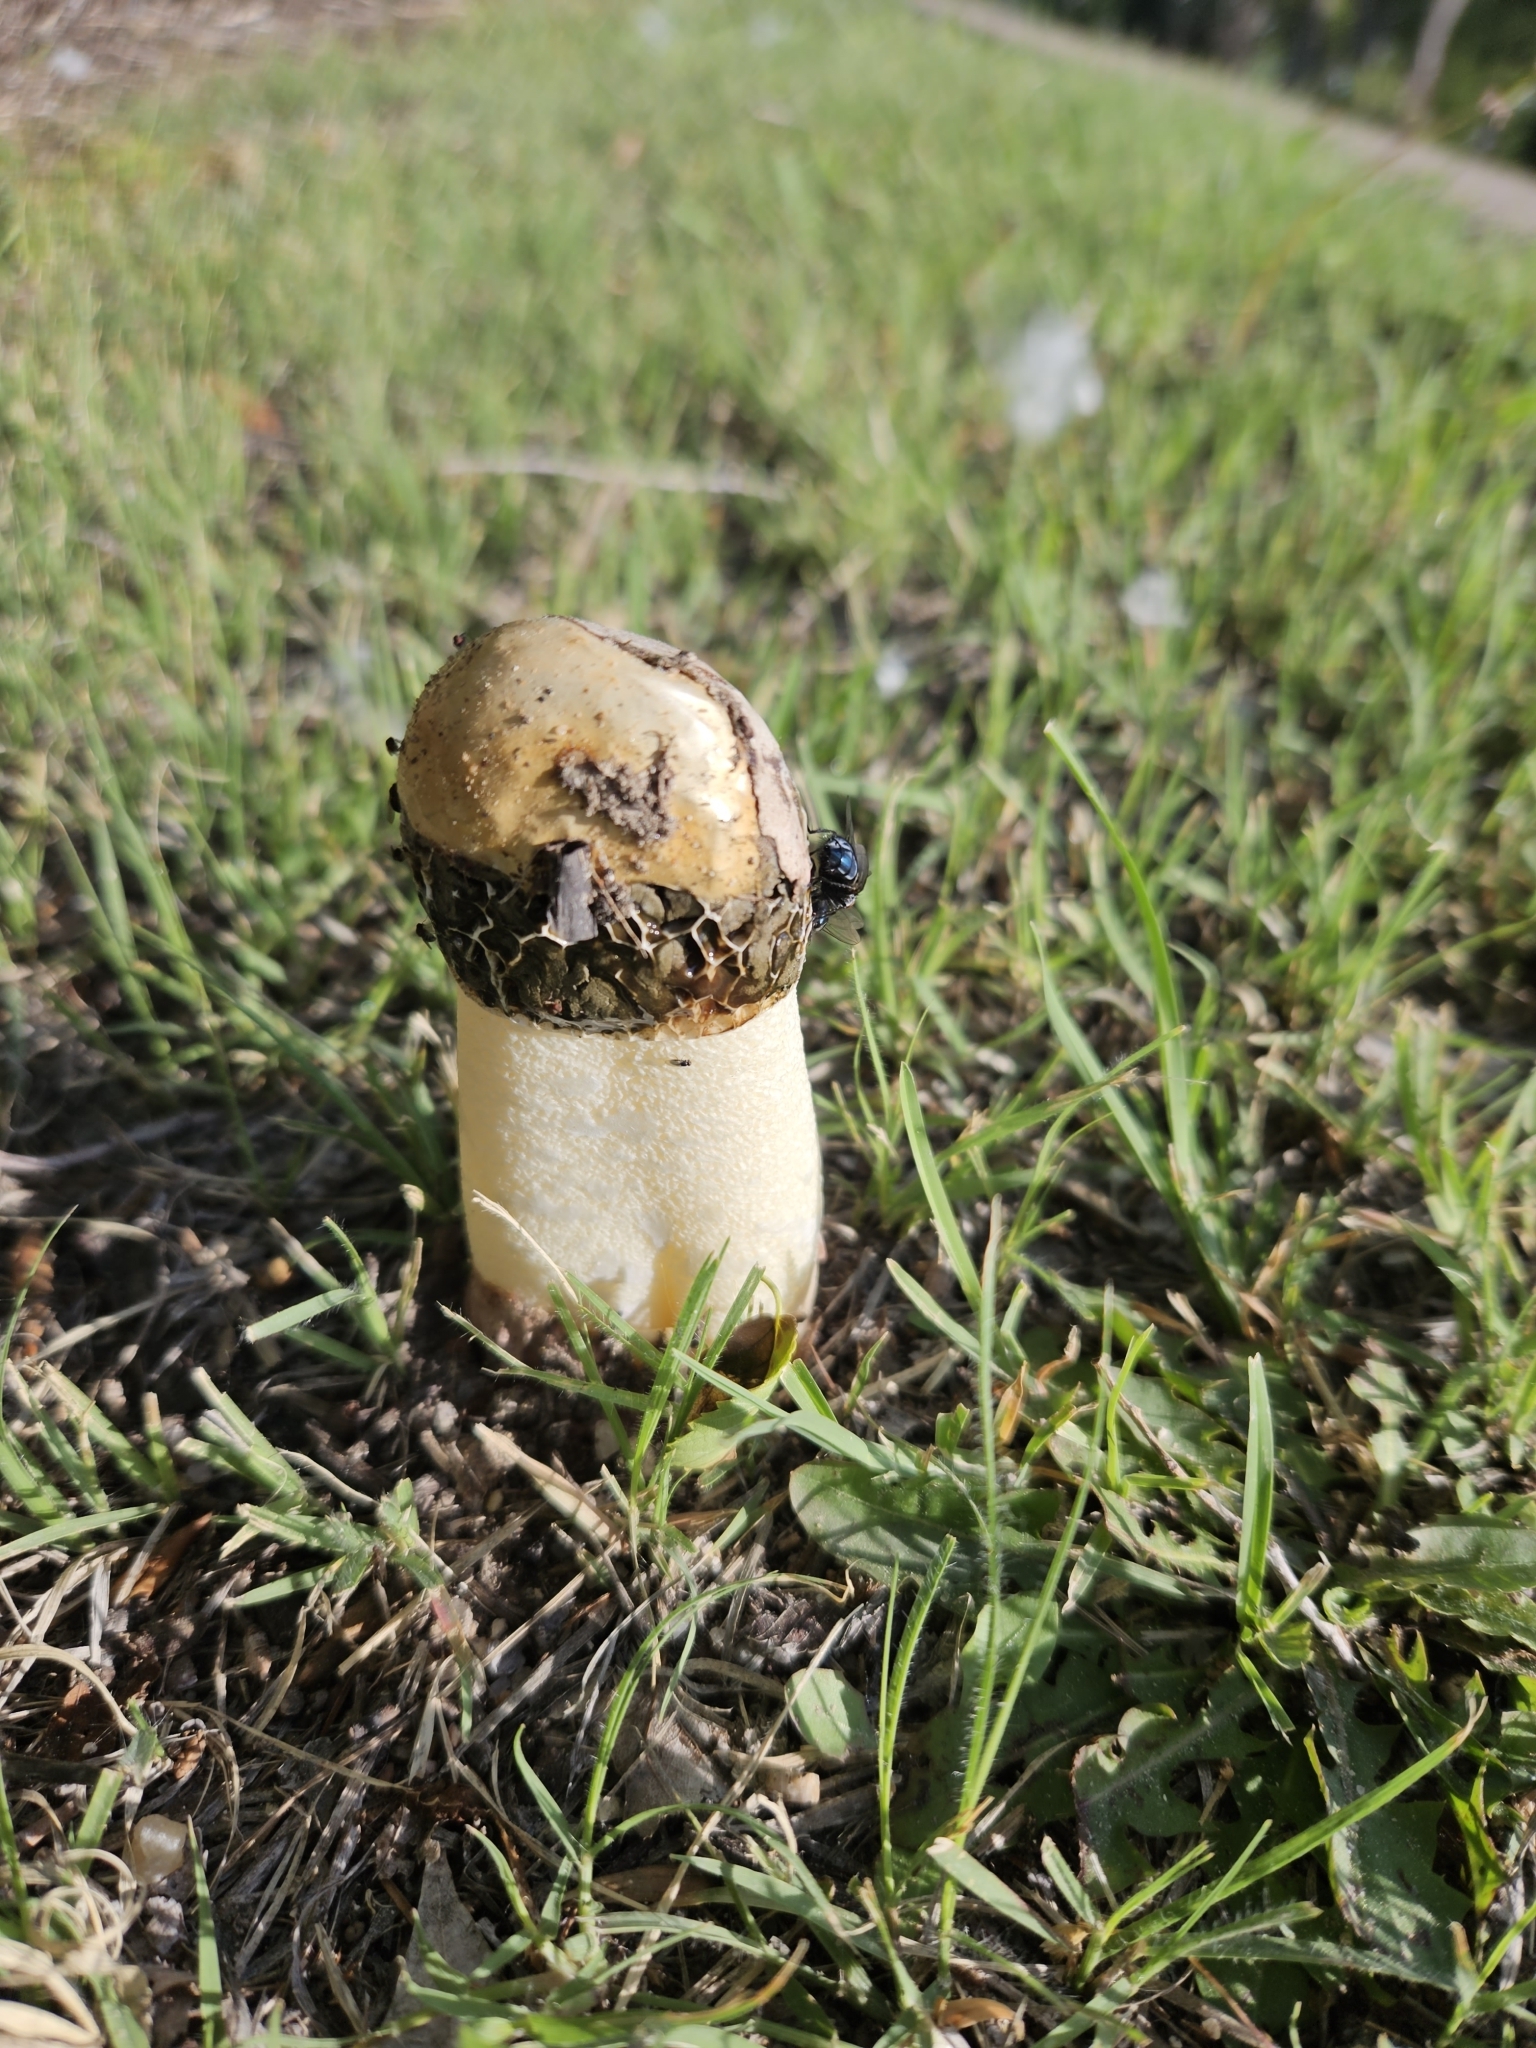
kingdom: Fungi
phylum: Basidiomycota
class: Agaricomycetes
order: Phallales
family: Phallaceae
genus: Phallus
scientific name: Phallus hadriani
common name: Sand stinkhorn
